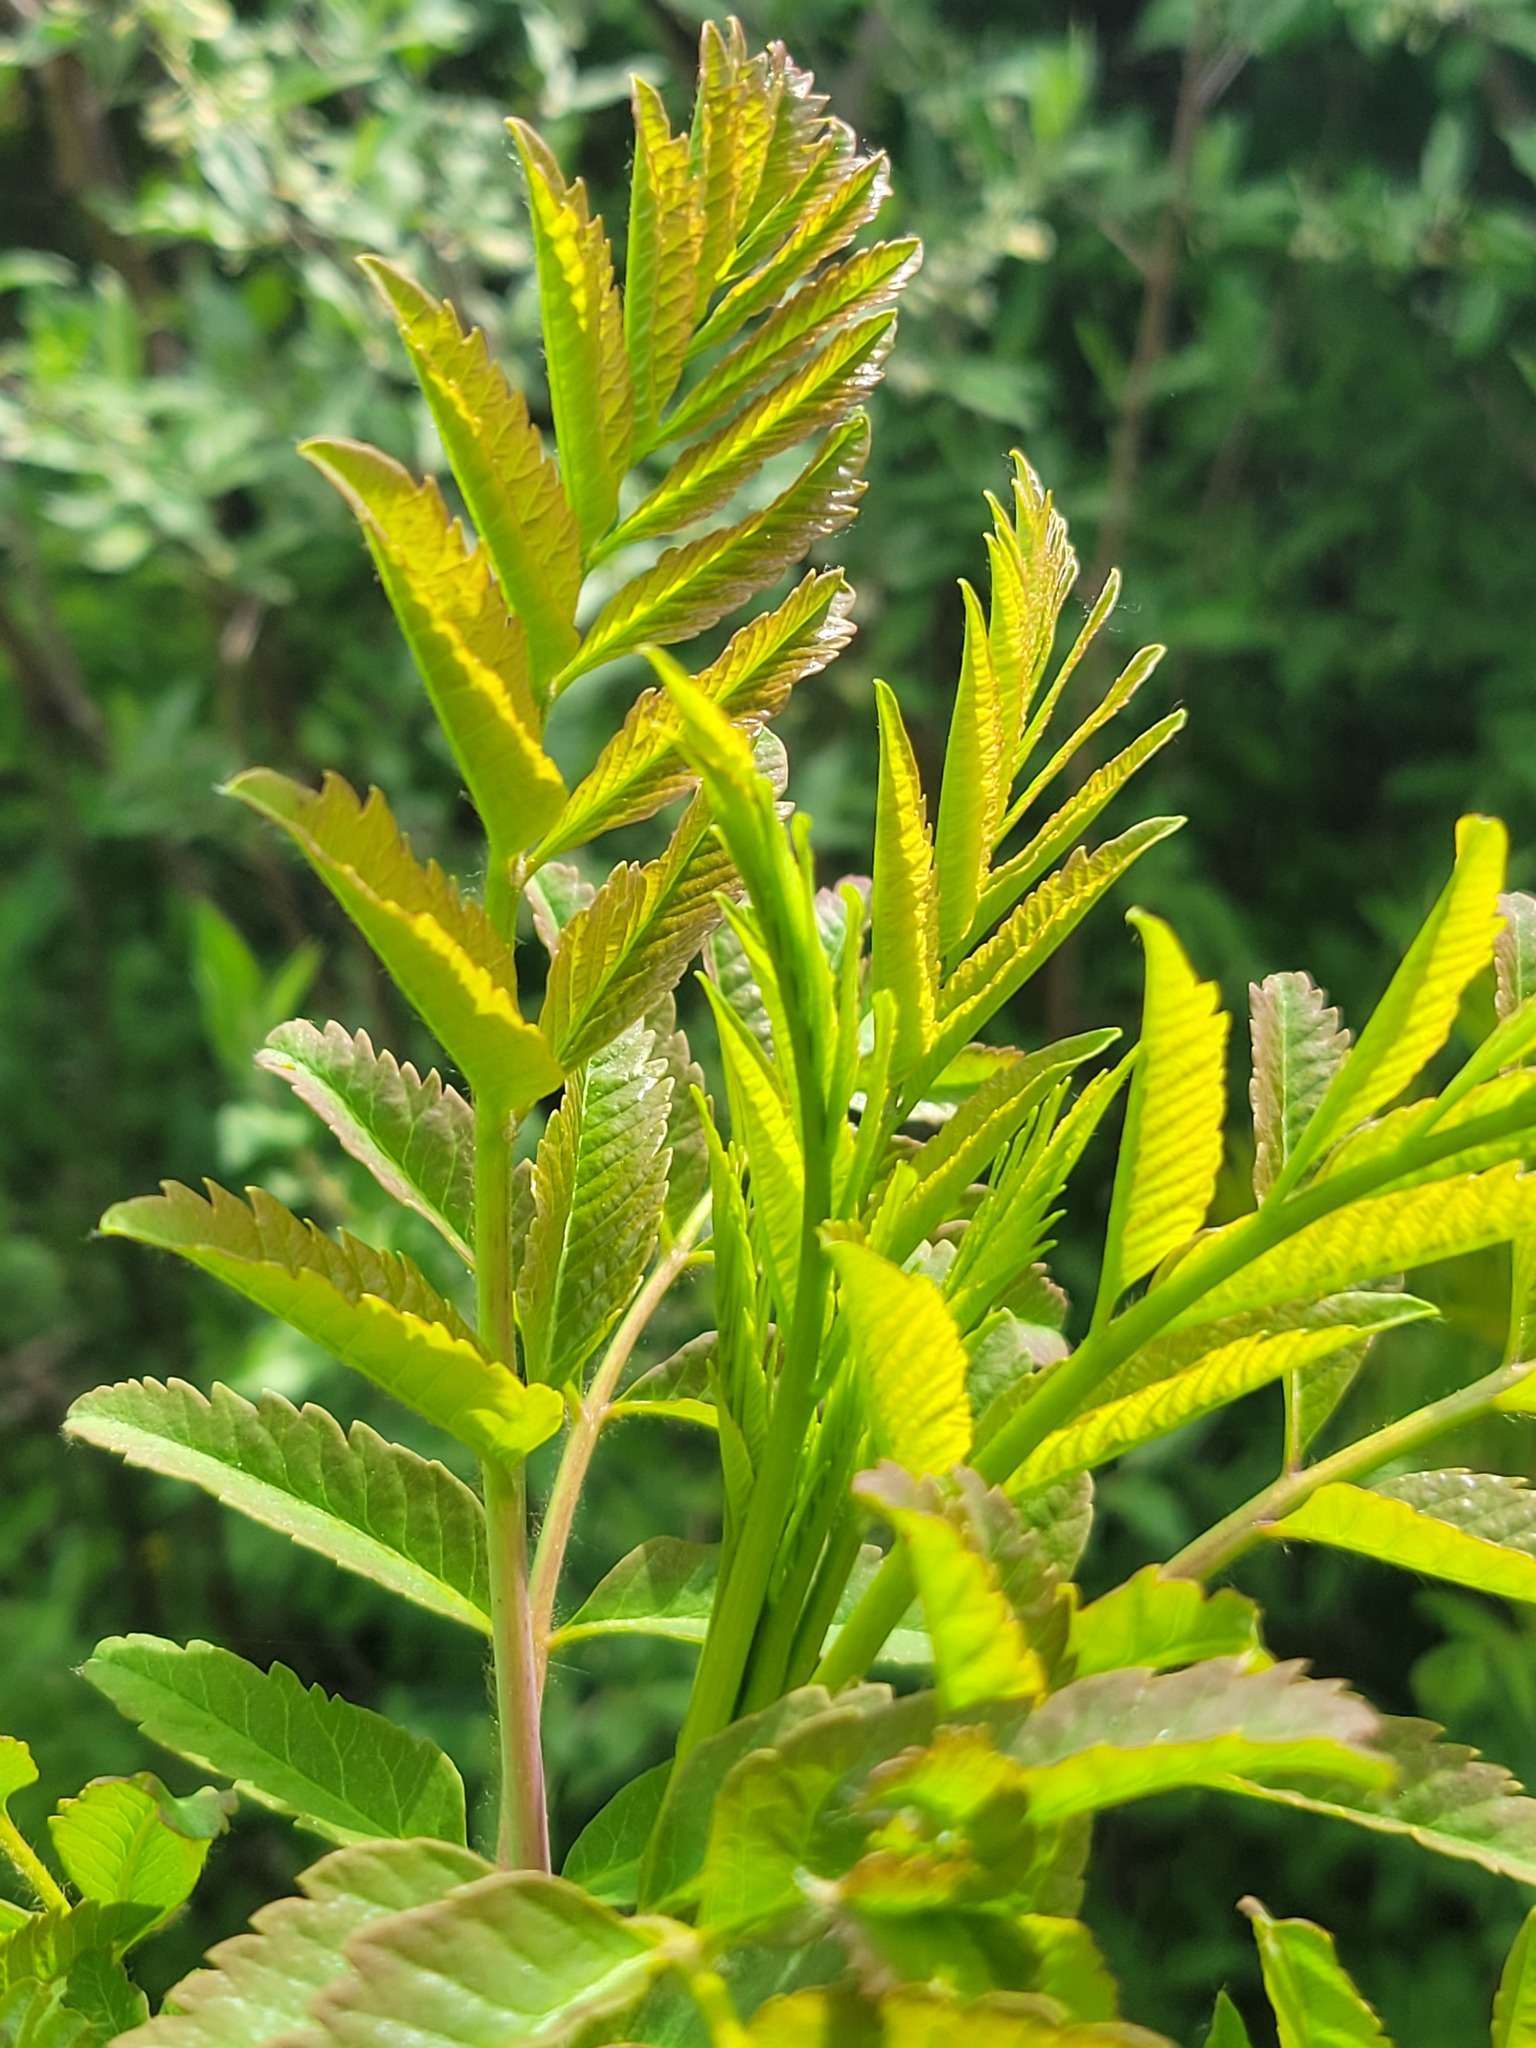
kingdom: Plantae
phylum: Tracheophyta
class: Magnoliopsida
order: Sapindales
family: Anacardiaceae
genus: Rhus
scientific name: Rhus glabra
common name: Scarlet sumac
